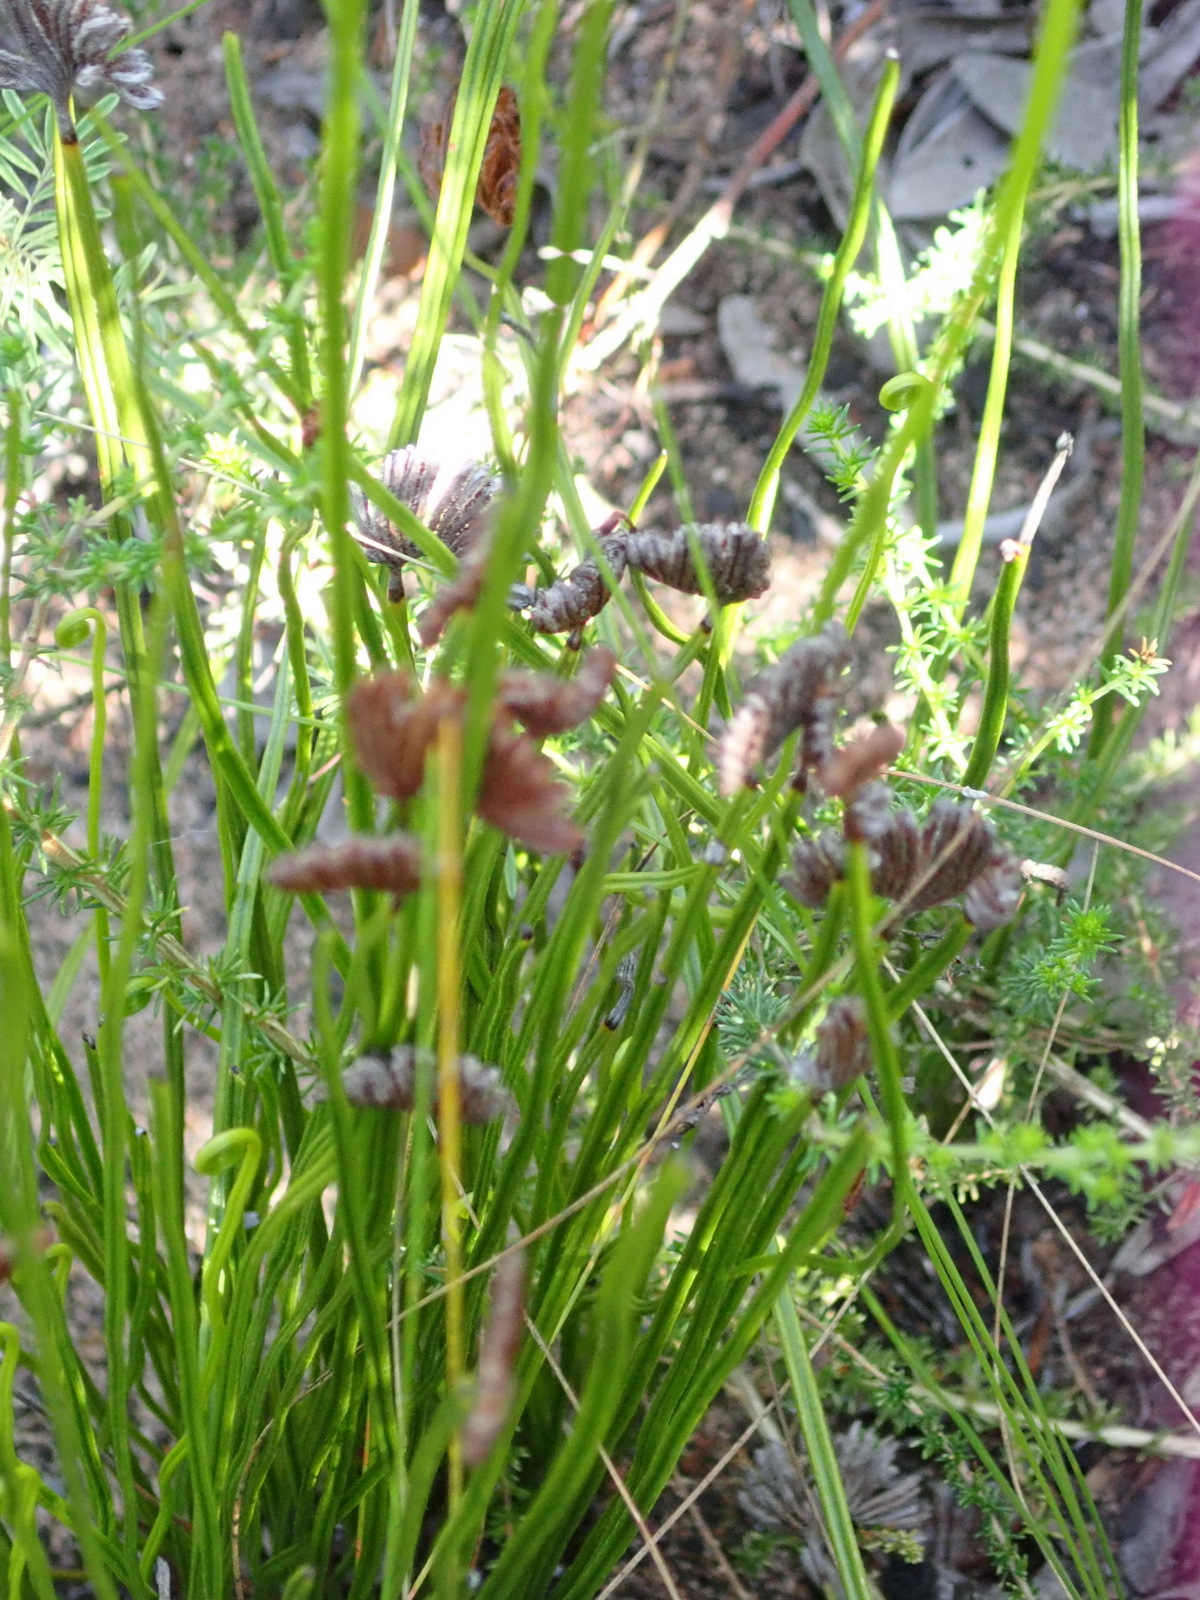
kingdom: Plantae
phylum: Tracheophyta
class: Polypodiopsida
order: Schizaeales
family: Schizaeaceae
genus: Schizaea
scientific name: Schizaea pectinata
